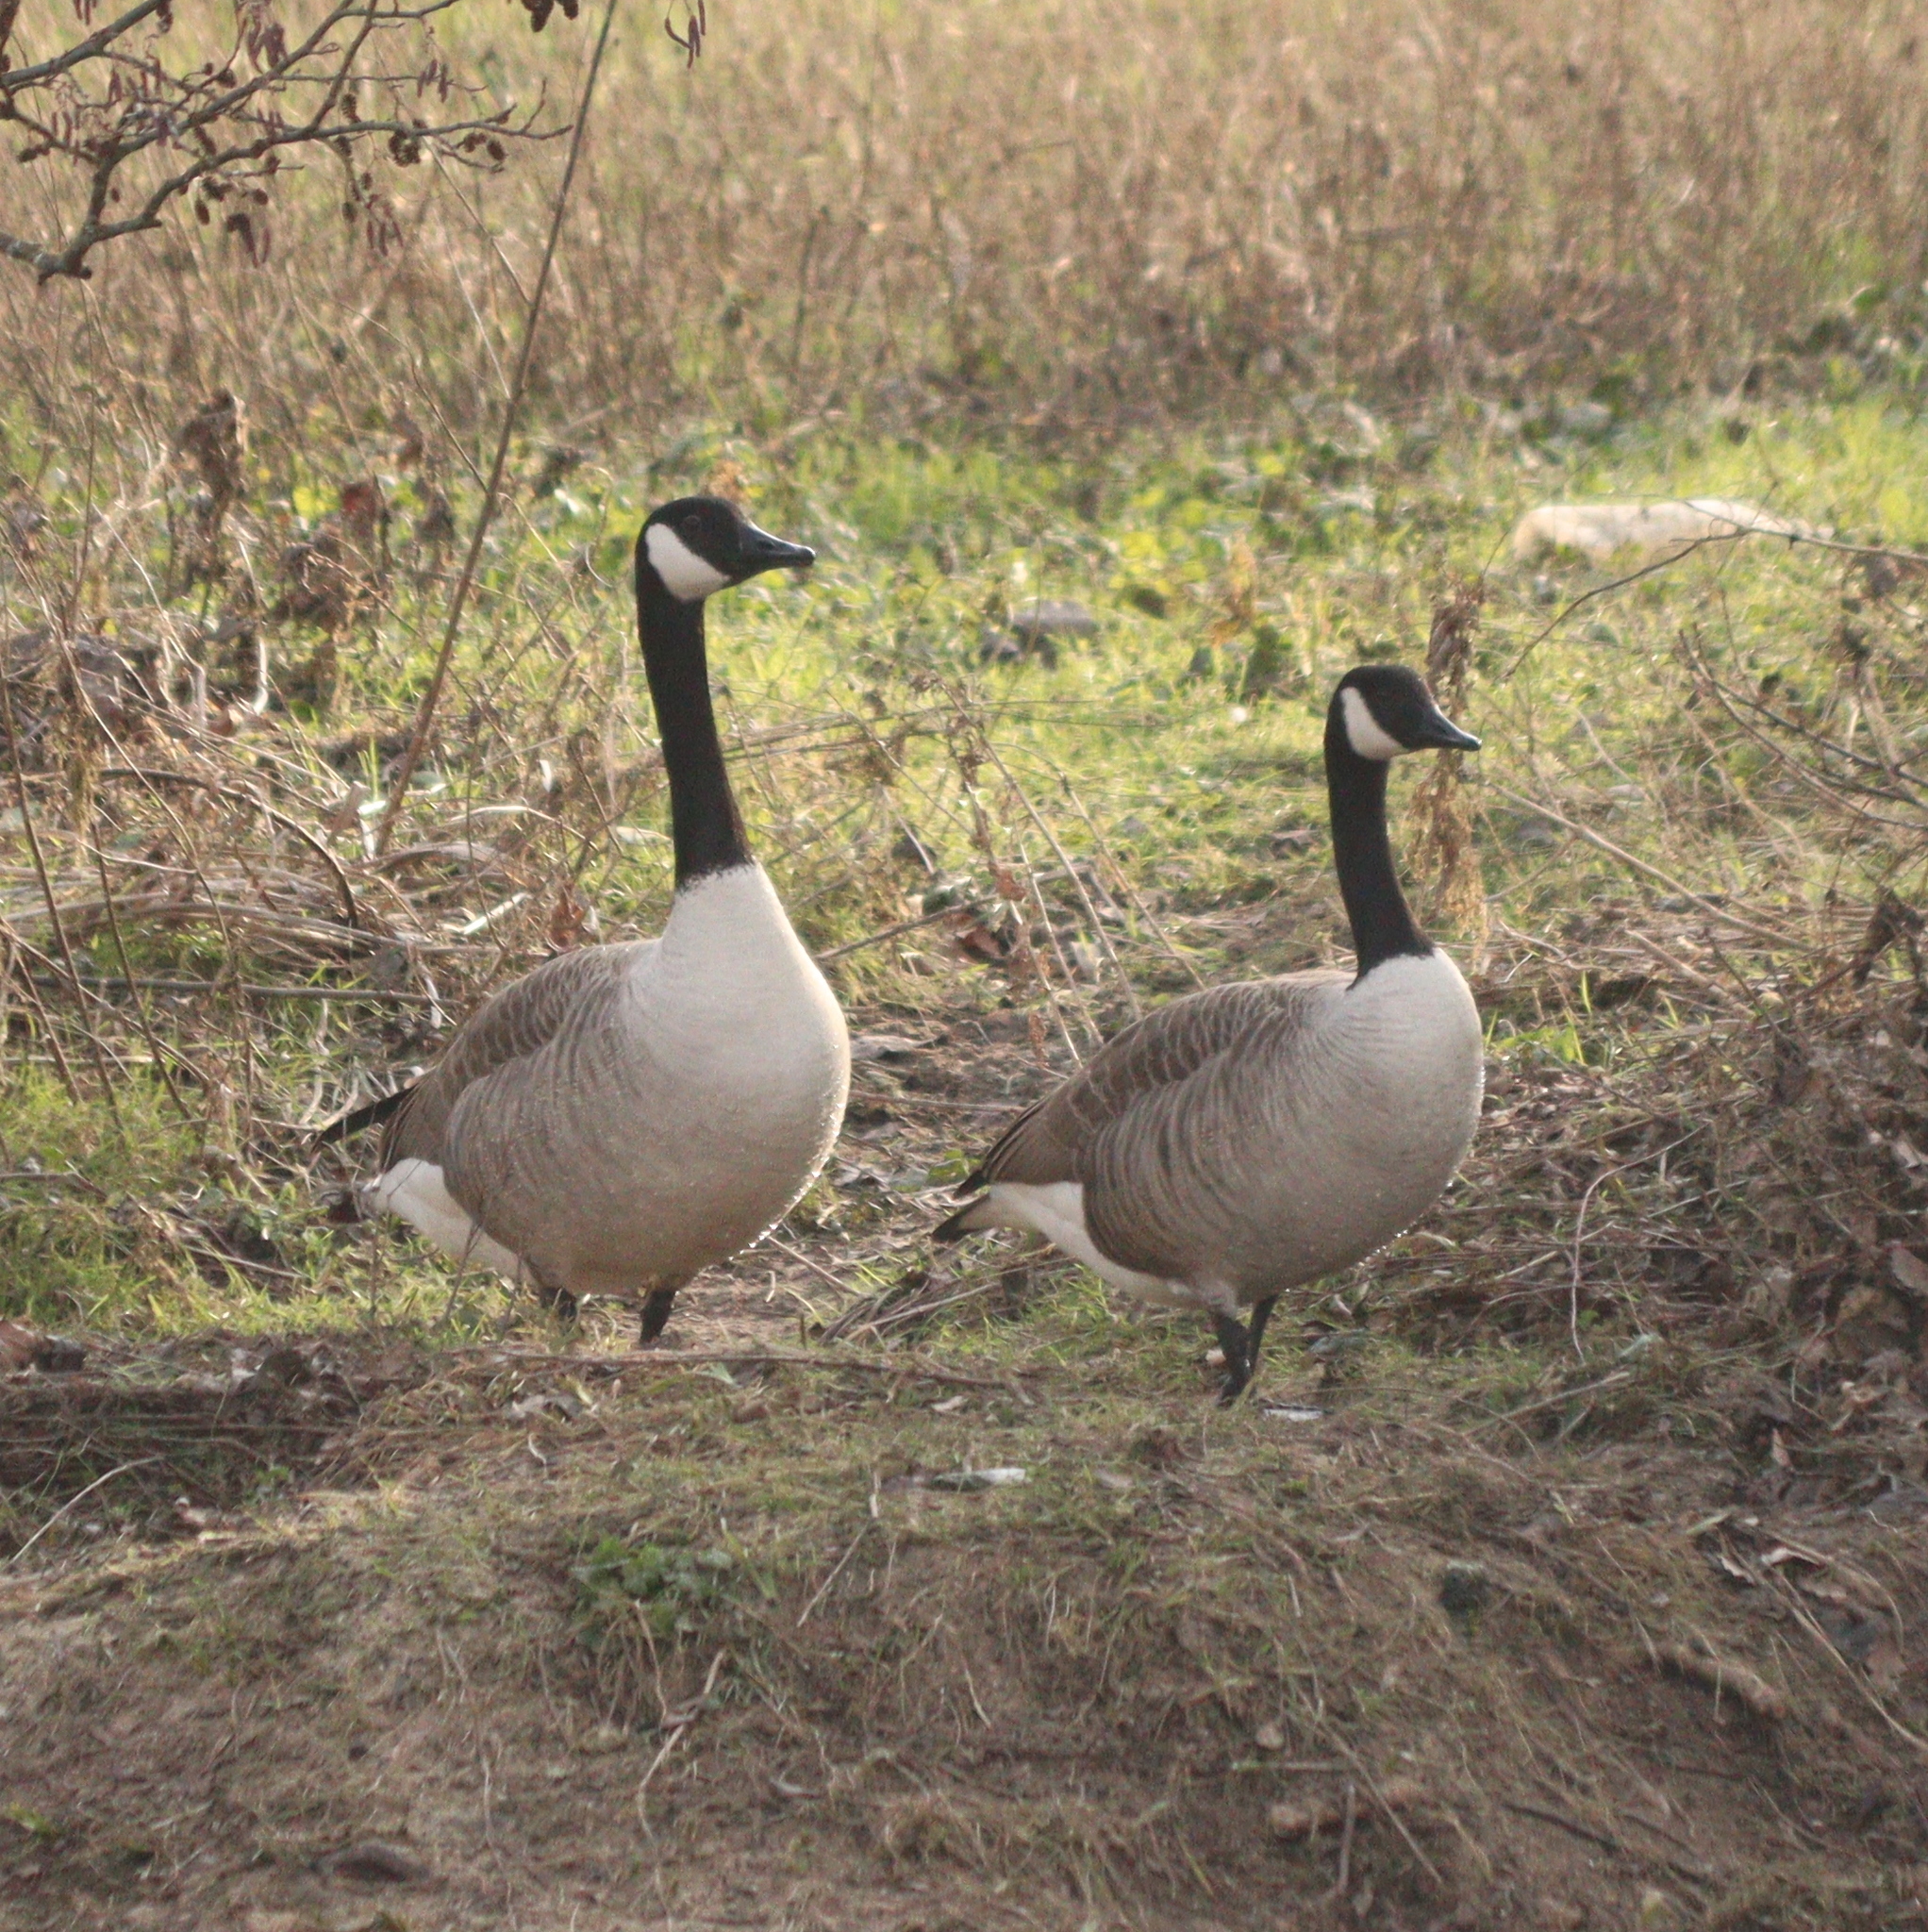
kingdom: Animalia
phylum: Chordata
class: Aves
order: Anseriformes
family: Anatidae
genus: Branta
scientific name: Branta canadensis
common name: Canada goose
